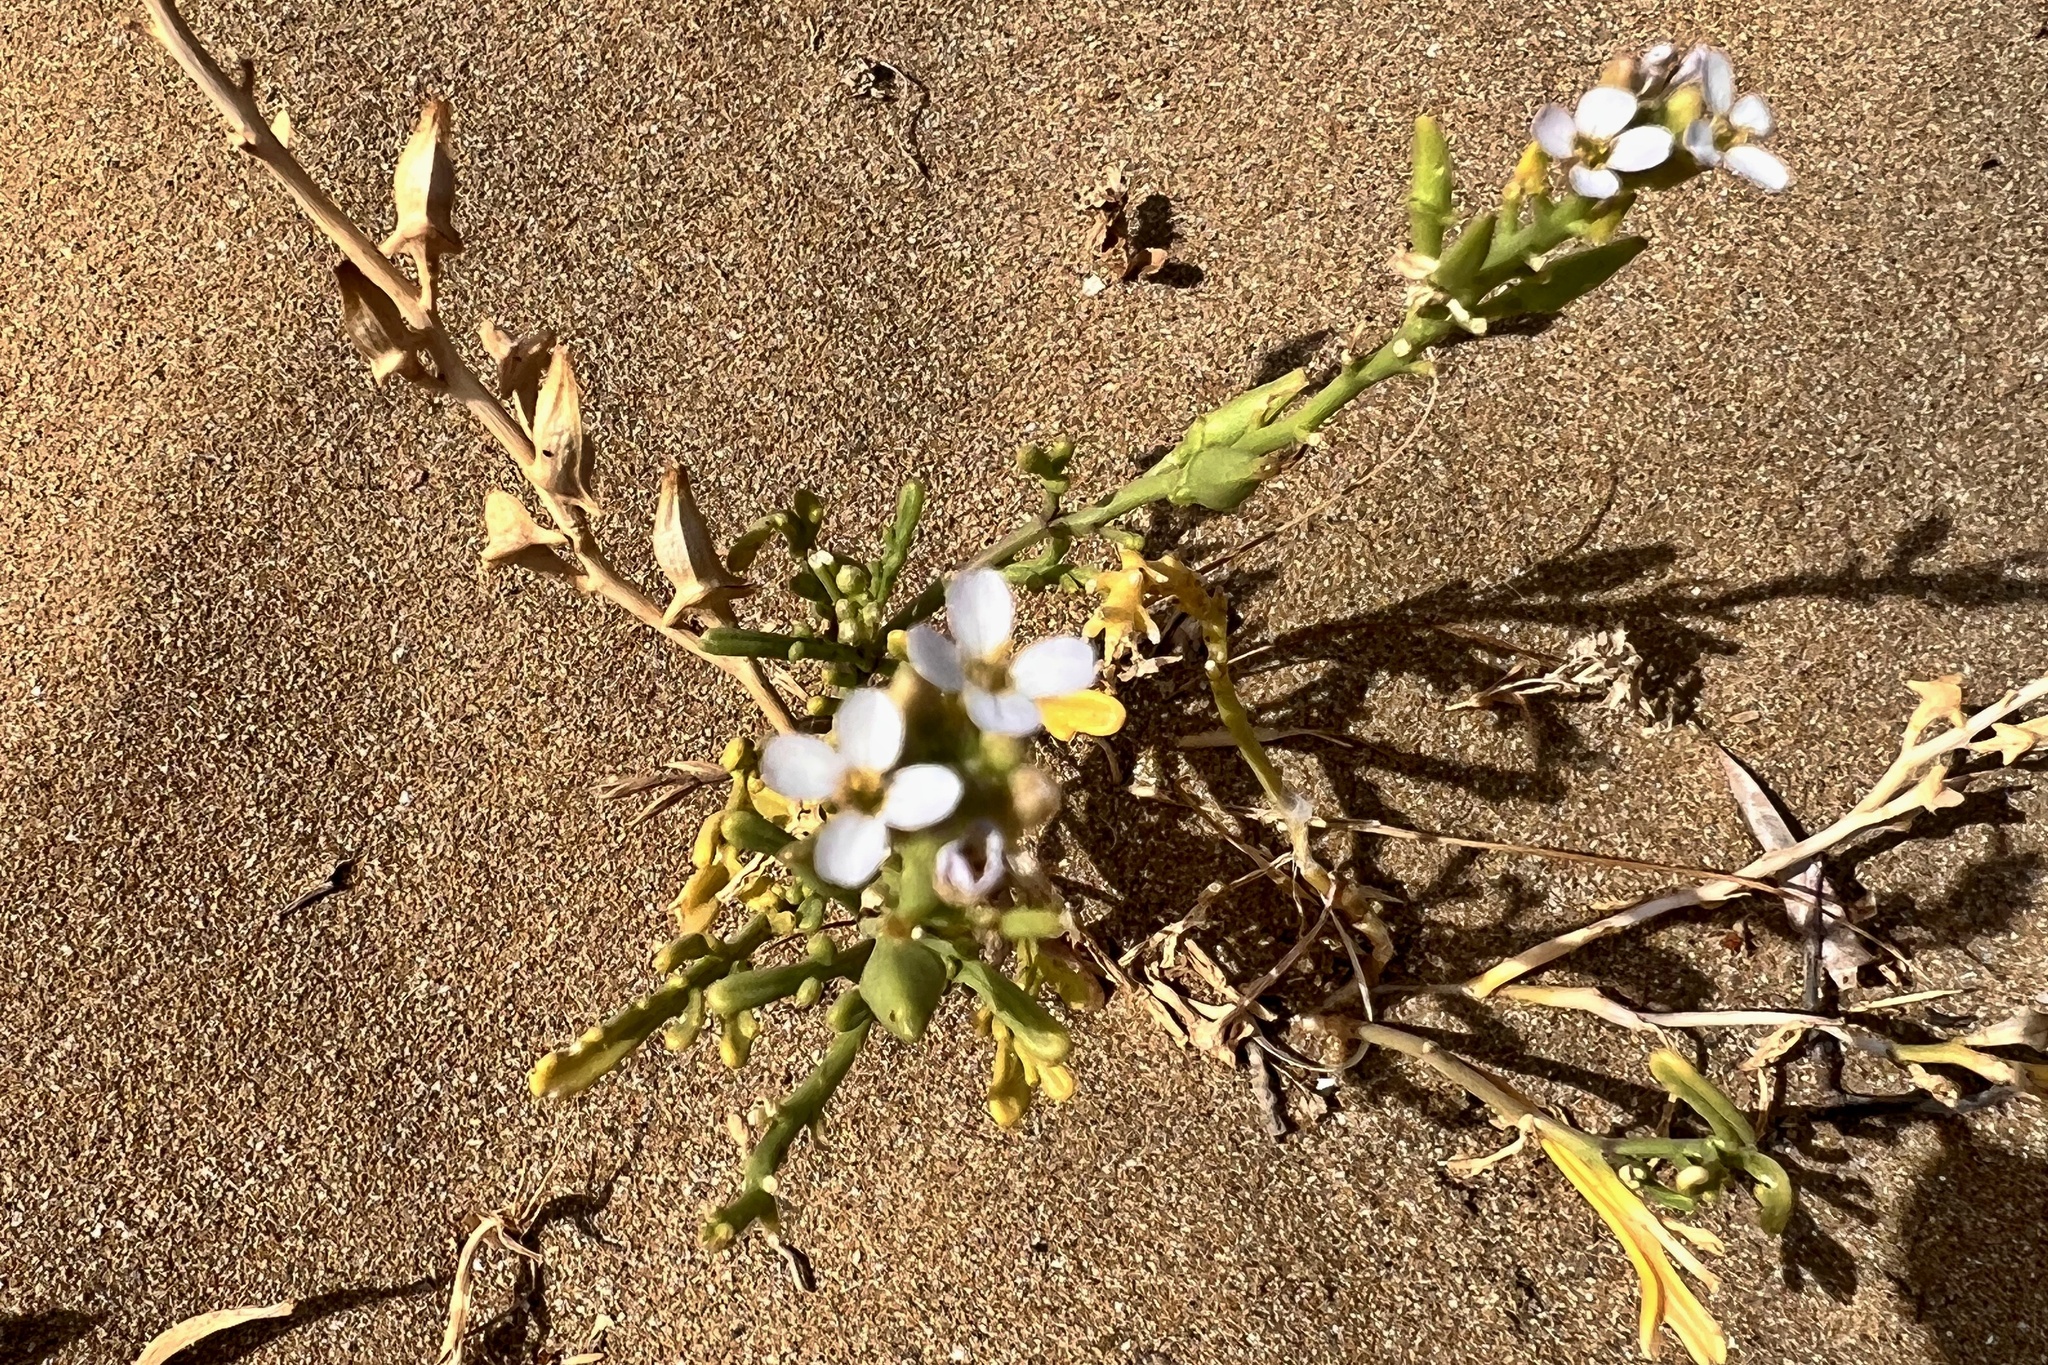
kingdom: Plantae
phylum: Tracheophyta
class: Magnoliopsida
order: Brassicales
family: Brassicaceae
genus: Cakile
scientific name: Cakile maritima
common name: Sea rocket
